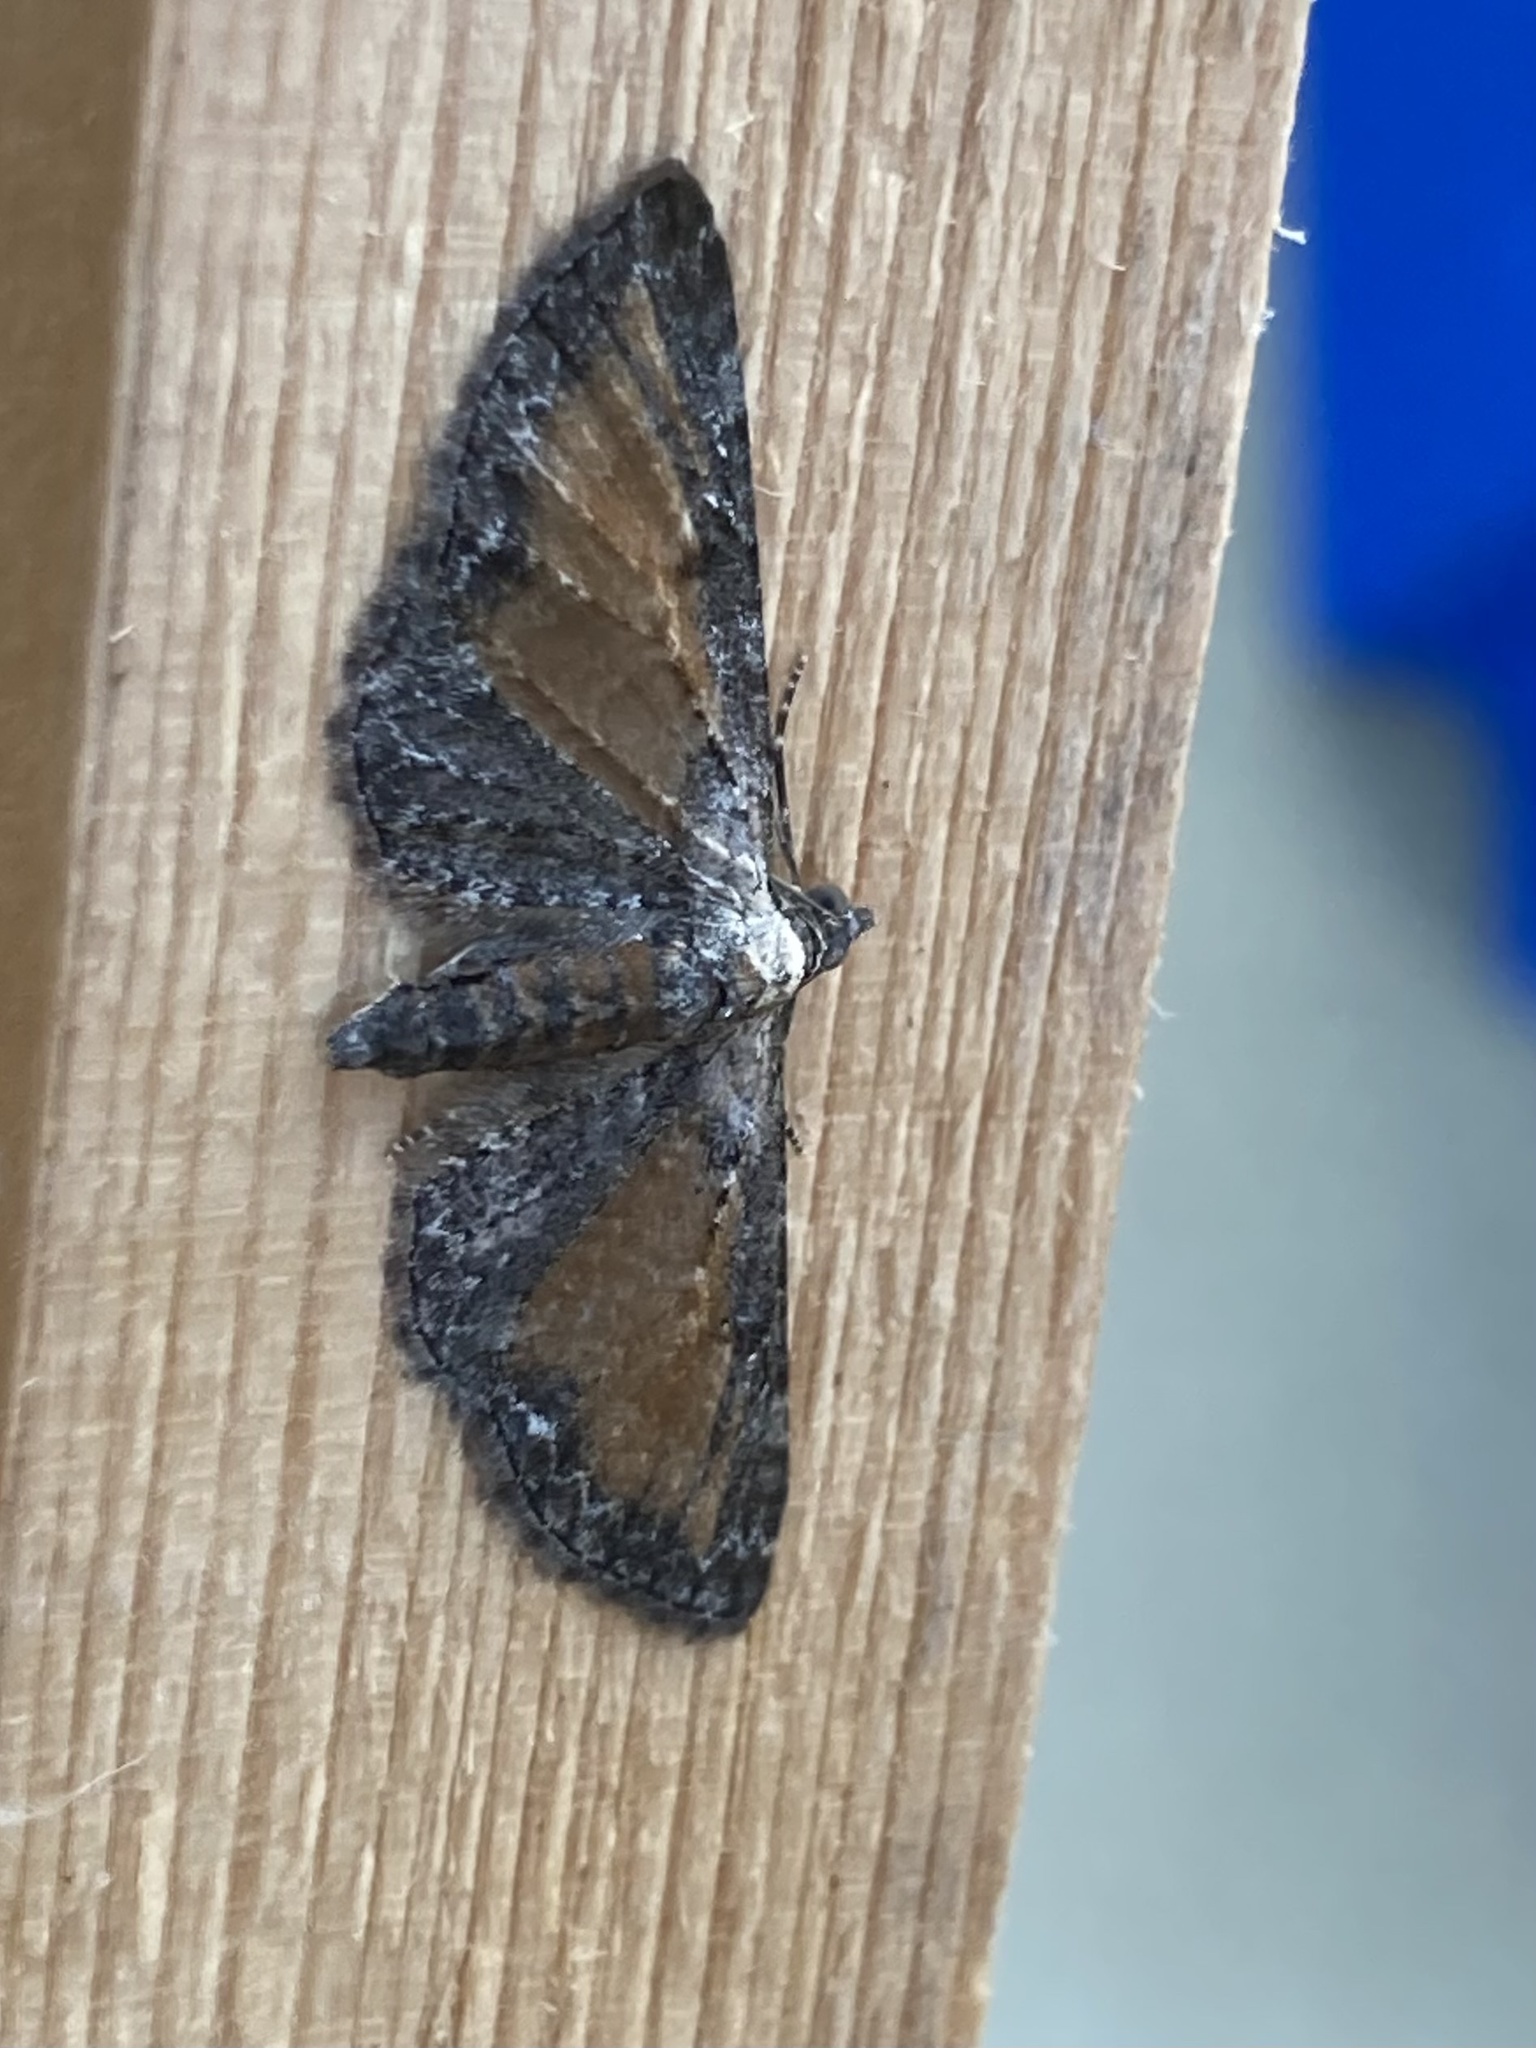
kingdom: Animalia
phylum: Arthropoda
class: Insecta
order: Lepidoptera
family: Geometridae
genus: Eupithecia
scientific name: Eupithecia icterata
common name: Tawny speckled pug
